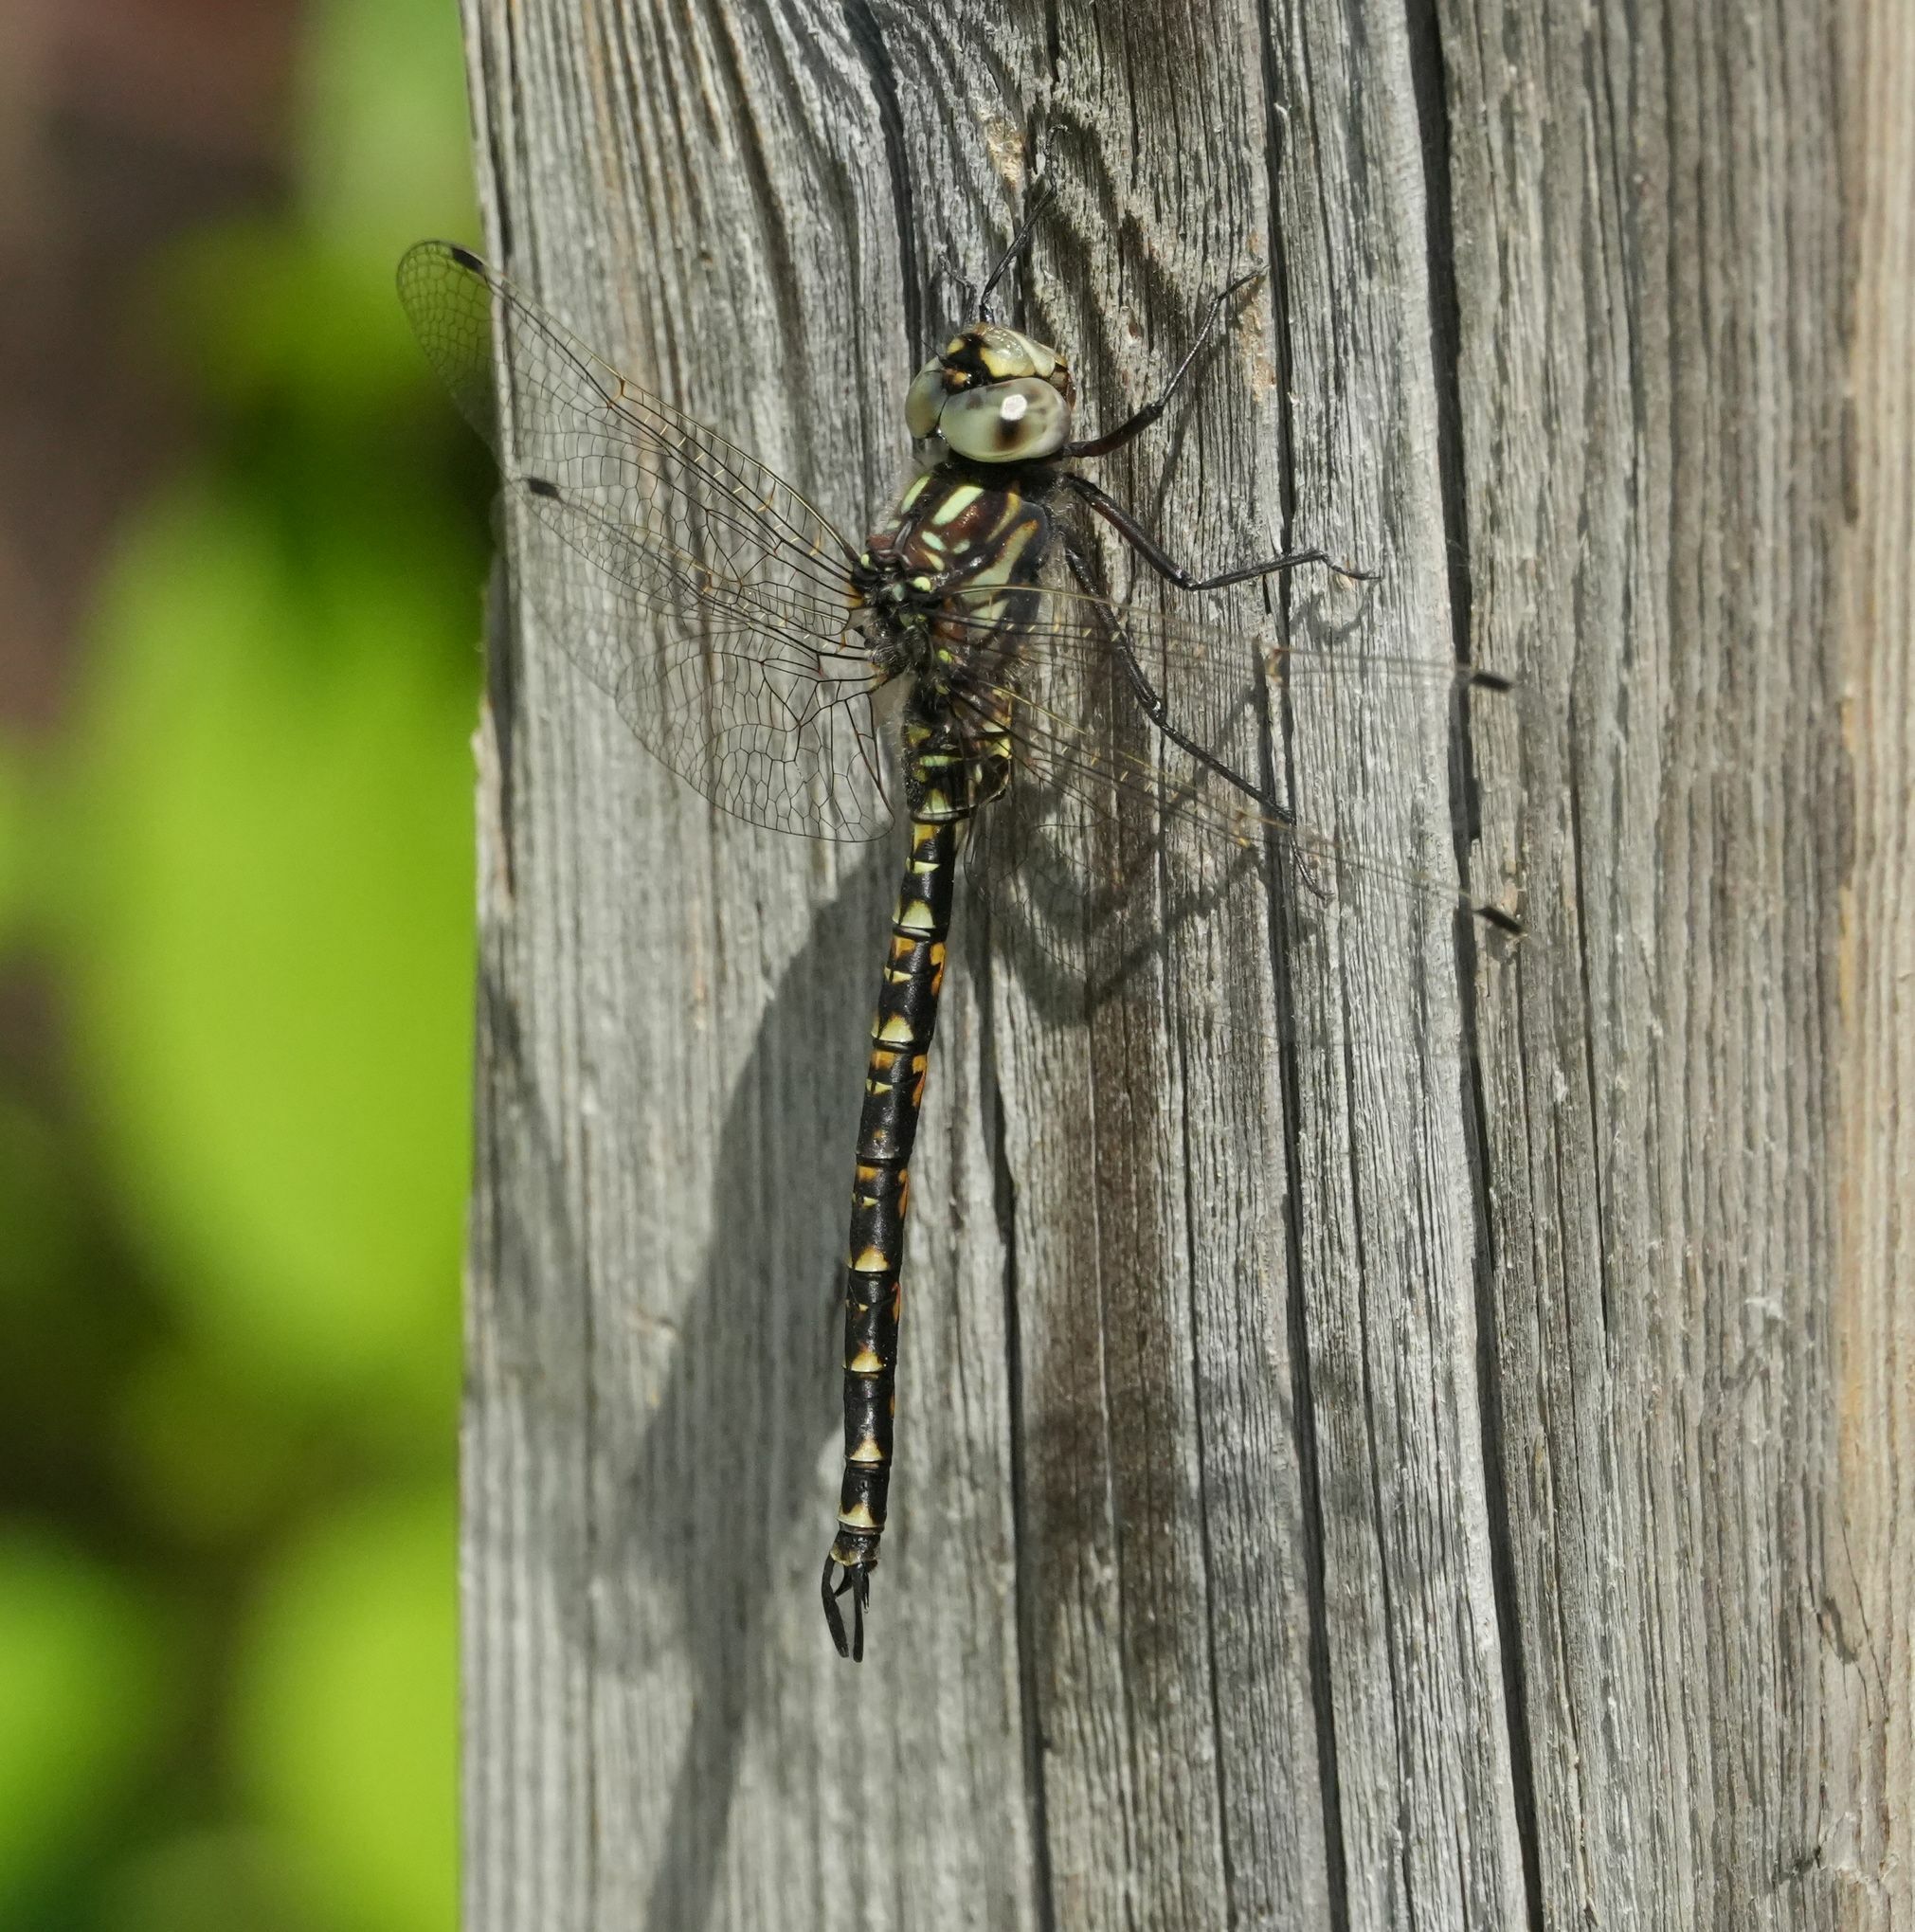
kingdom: Animalia
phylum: Arthropoda
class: Insecta
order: Odonata
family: Aeshnidae
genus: Gomphaeschna
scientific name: Gomphaeschna furcillata
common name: Harlequin darner
